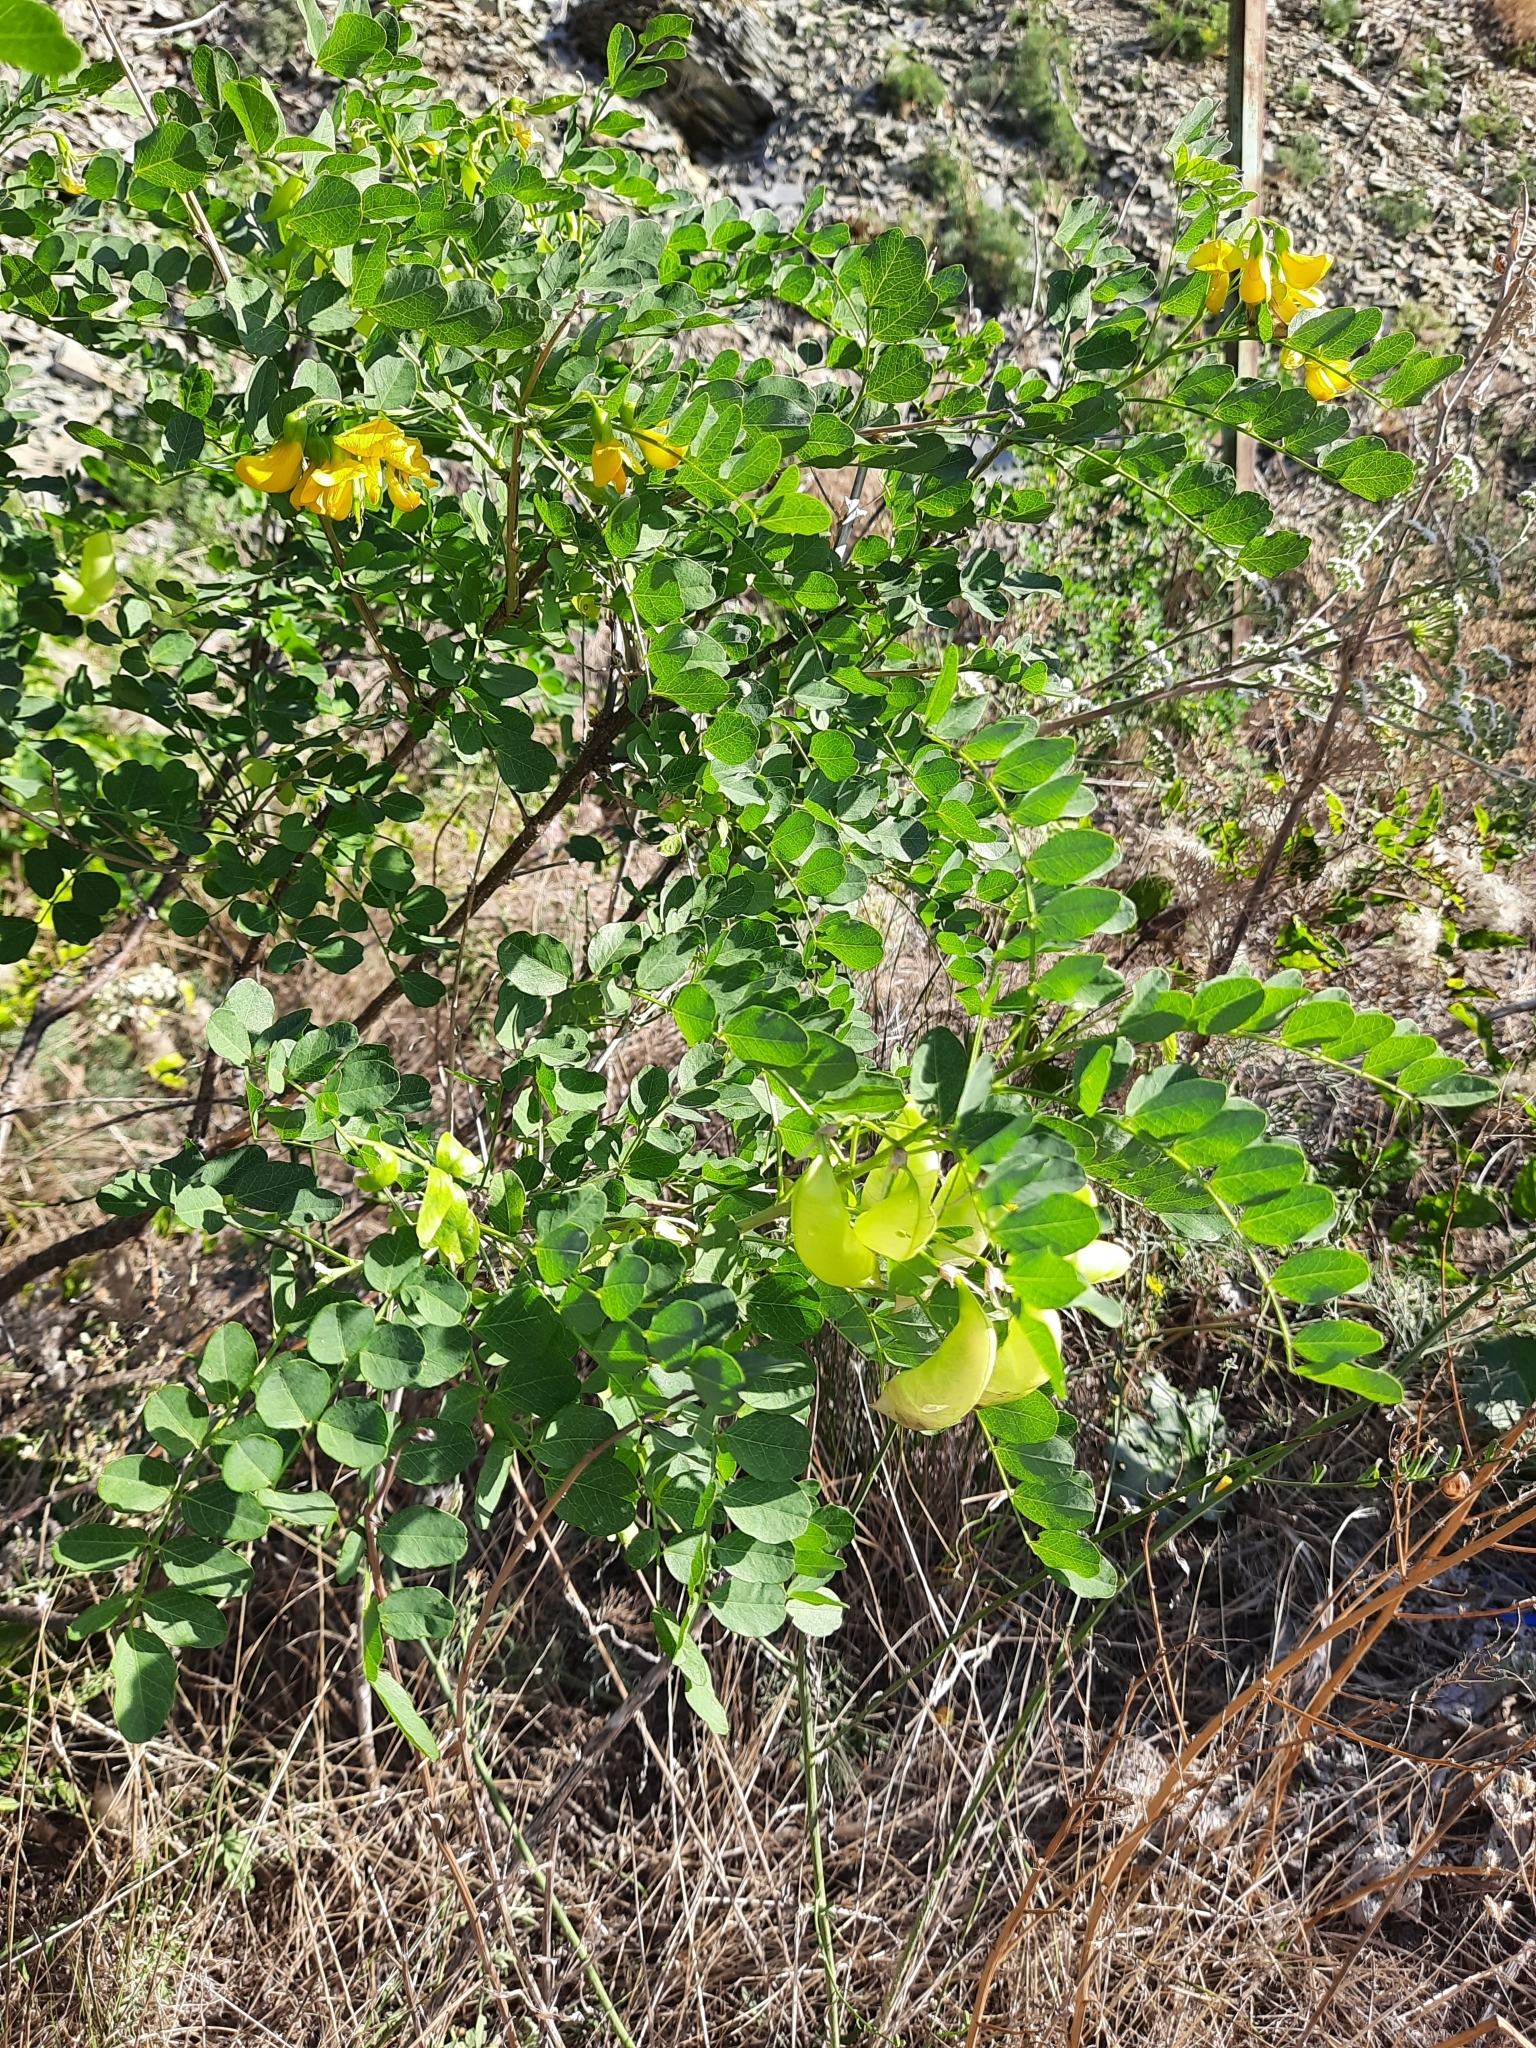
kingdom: Plantae
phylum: Tracheophyta
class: Magnoliopsida
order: Fabales
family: Fabaceae
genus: Colutea
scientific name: Colutea cilicica
